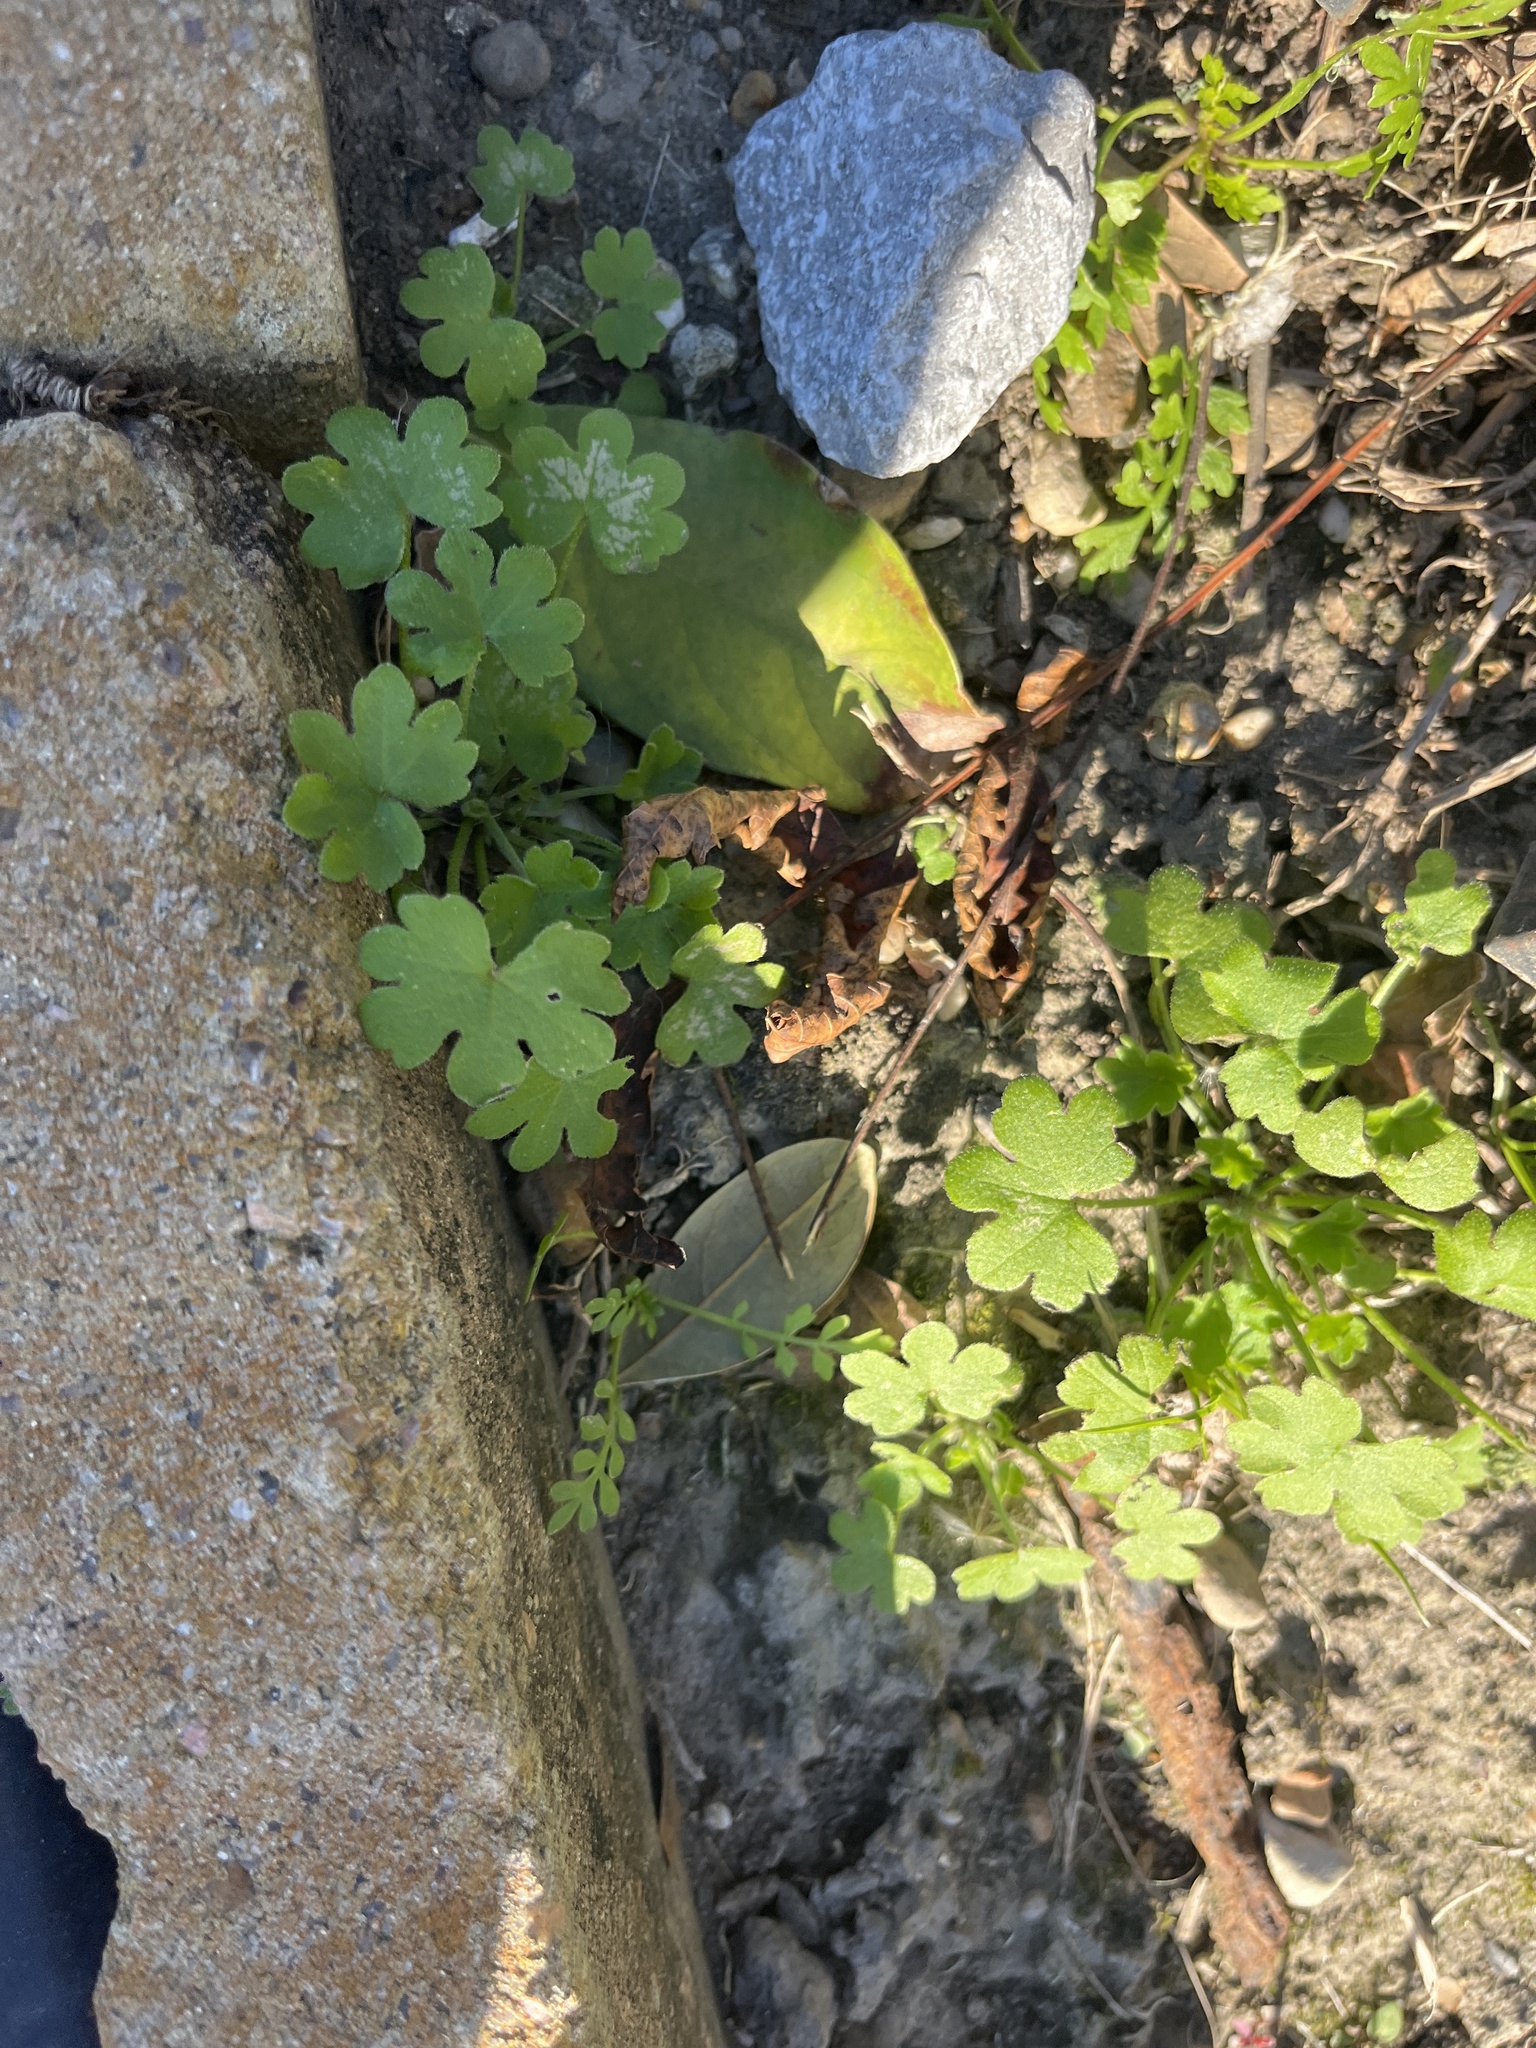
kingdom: Plantae
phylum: Tracheophyta
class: Magnoliopsida
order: Apiales
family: Apiaceae
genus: Bowlesia
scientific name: Bowlesia incana
